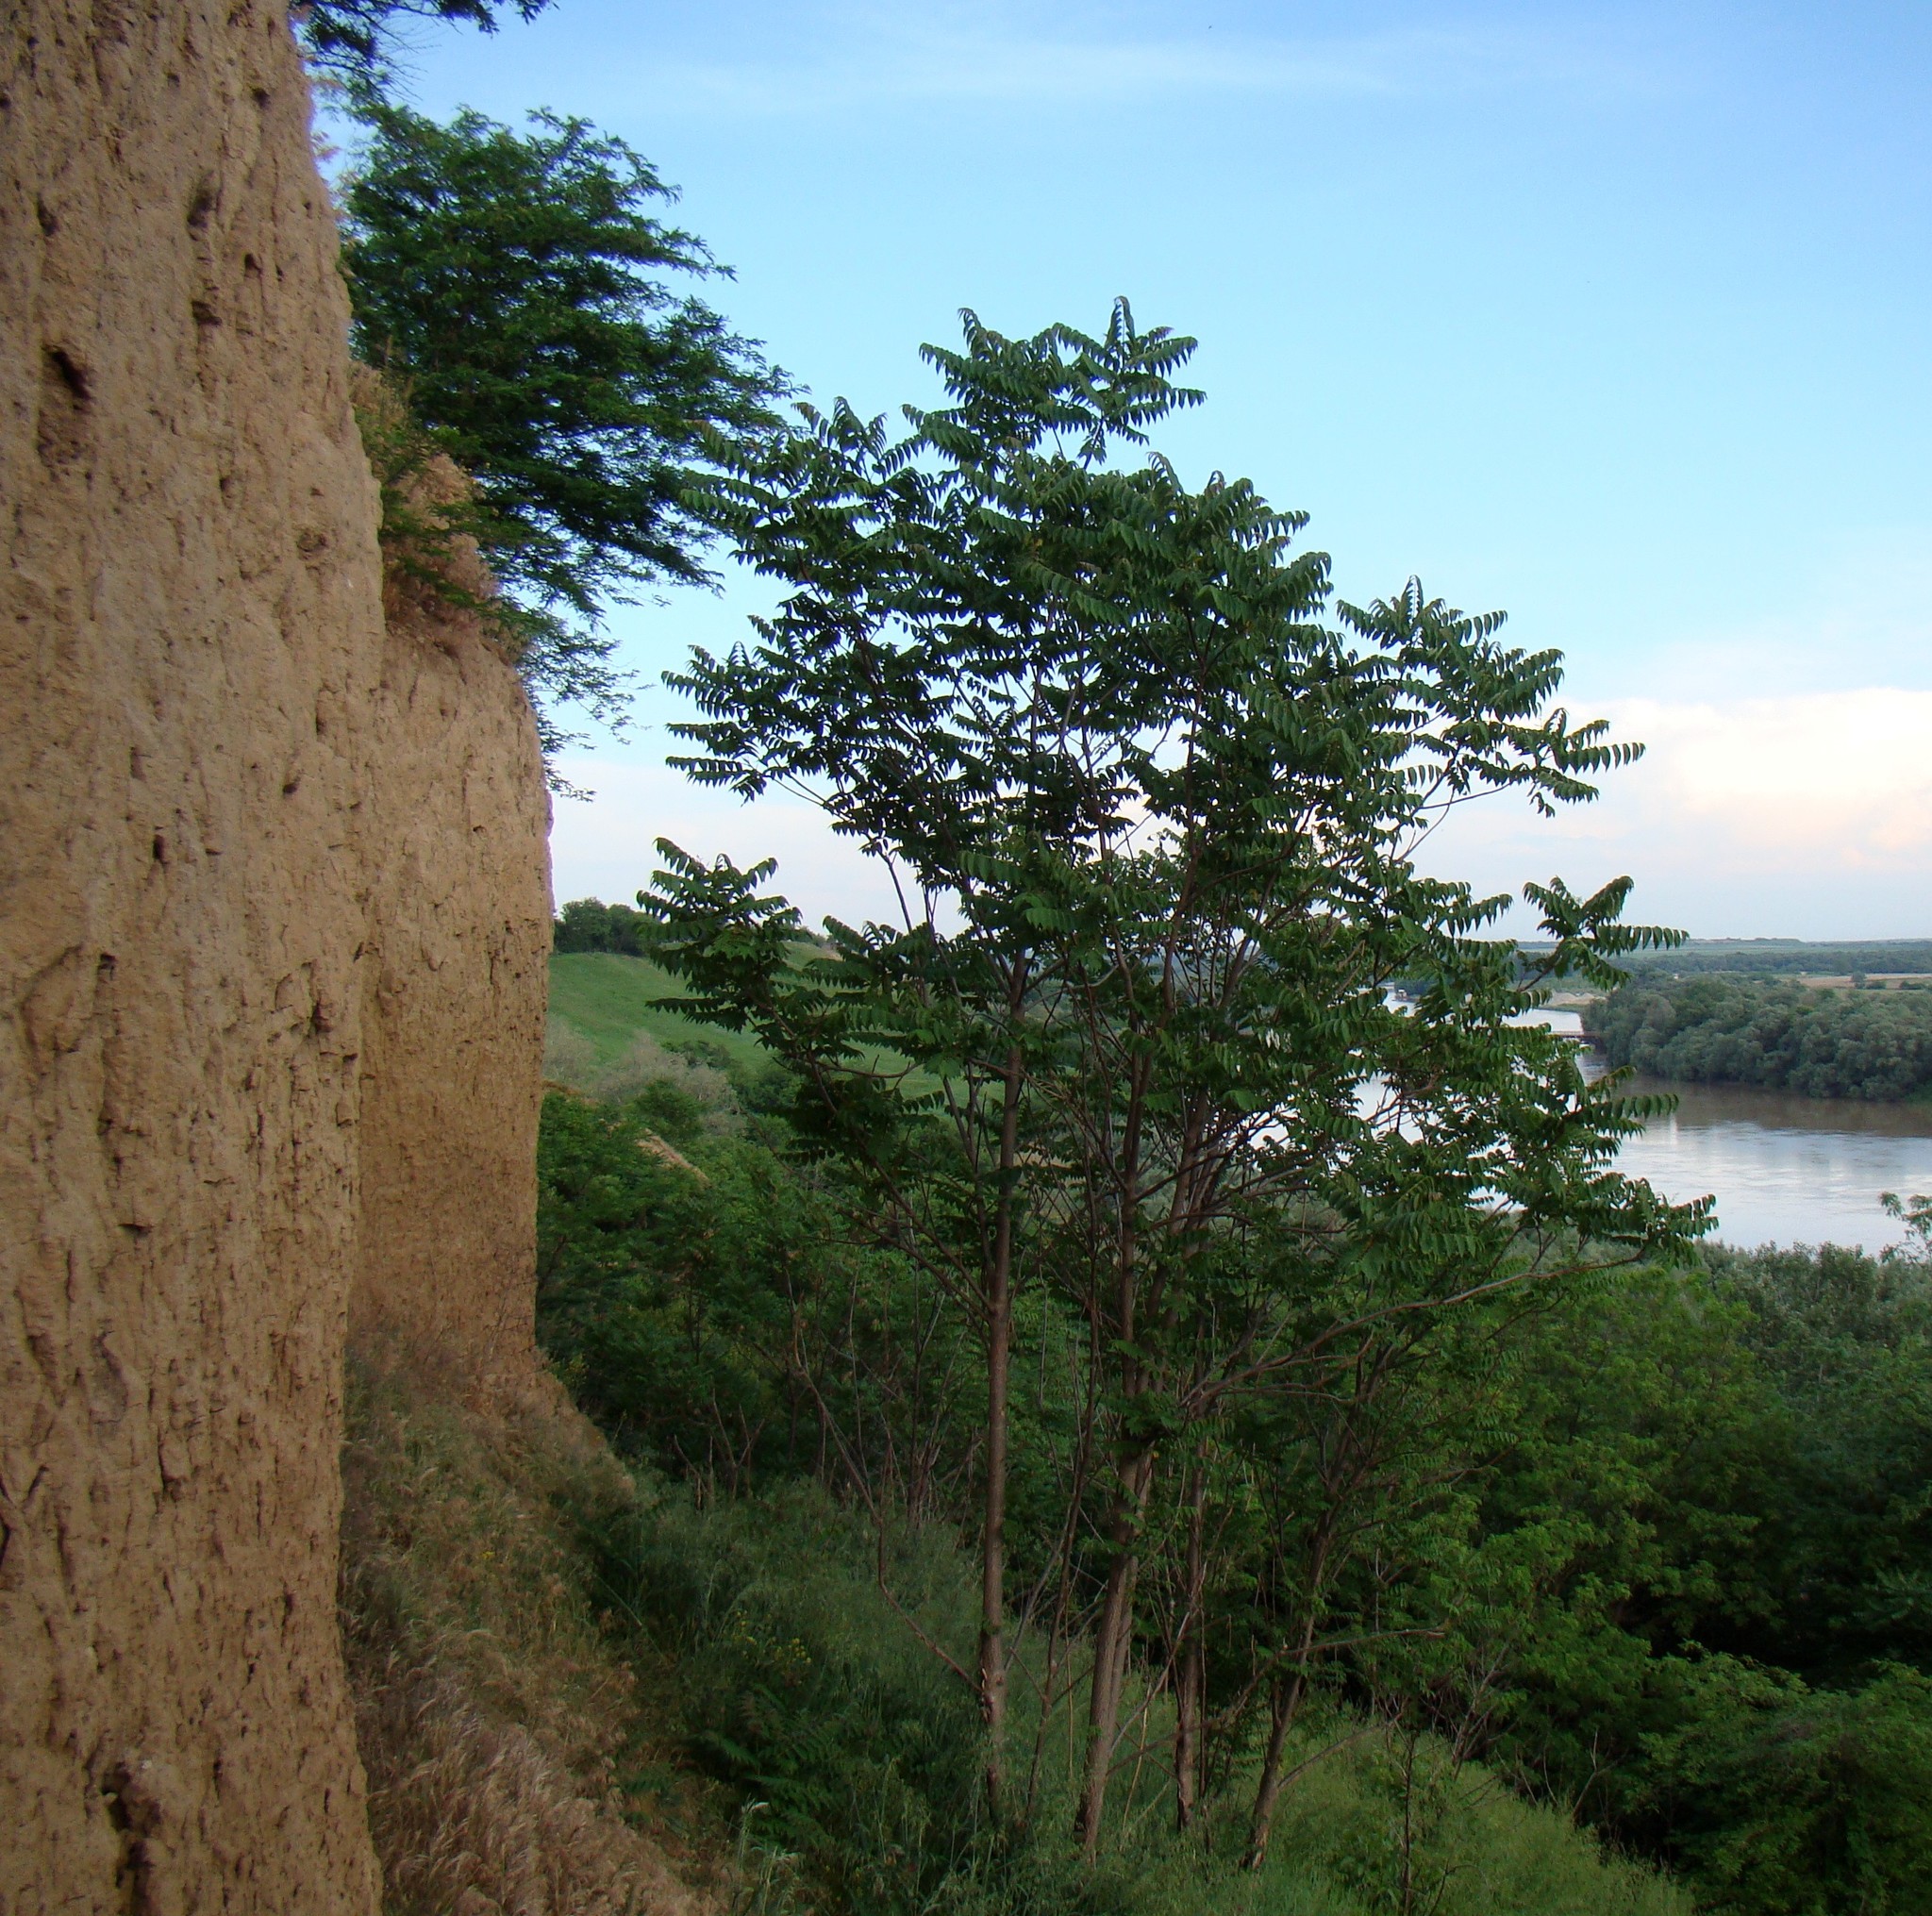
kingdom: Plantae
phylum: Tracheophyta
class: Magnoliopsida
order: Sapindales
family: Simaroubaceae
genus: Ailanthus
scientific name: Ailanthus altissima
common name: Tree-of-heaven
